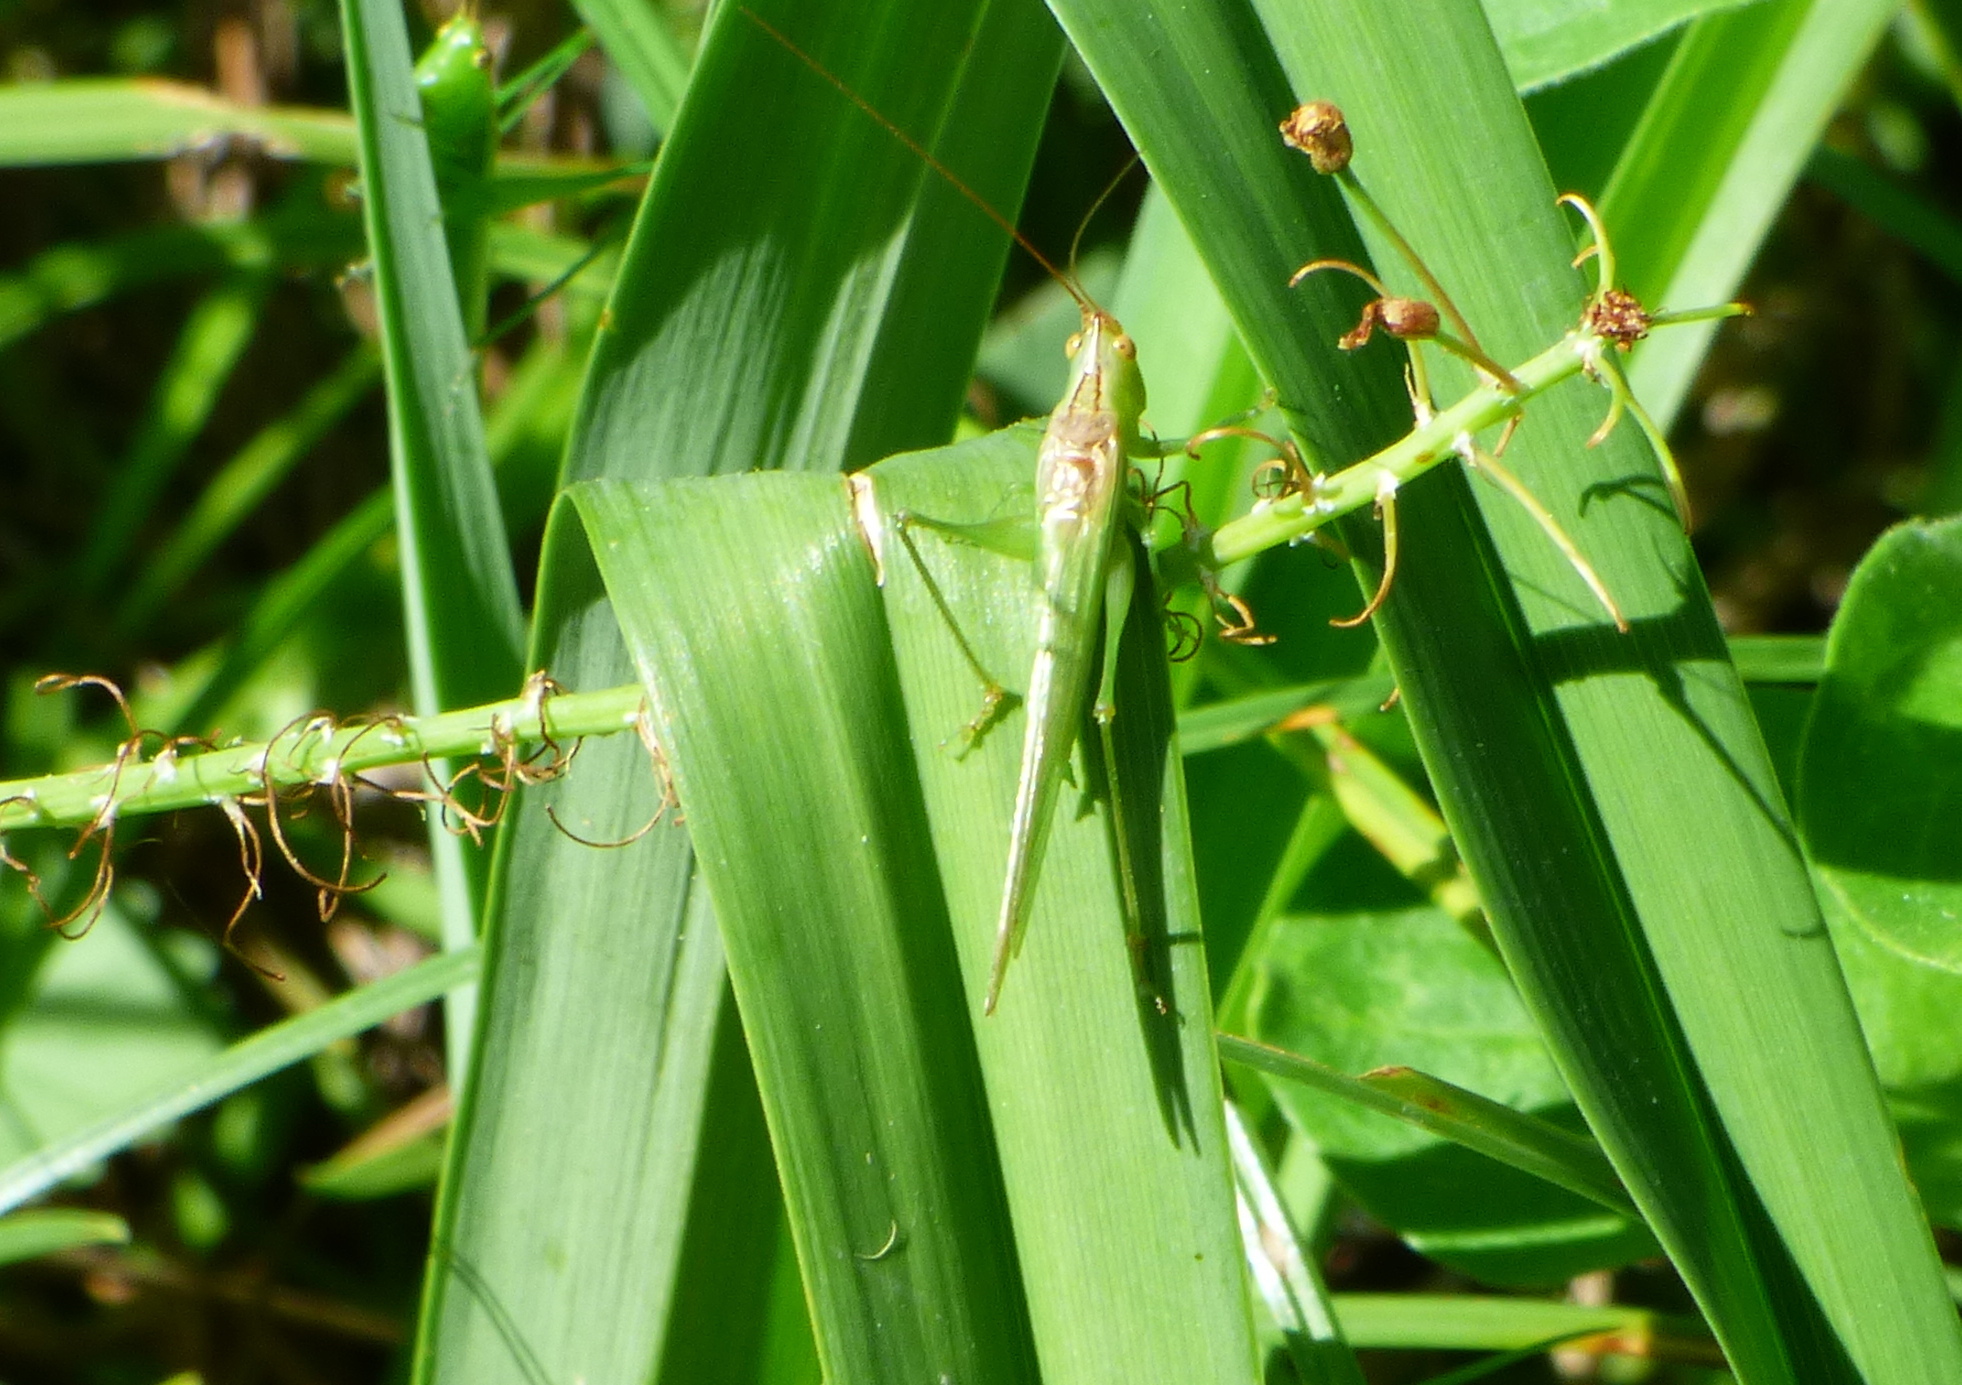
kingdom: Animalia
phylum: Arthropoda
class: Insecta
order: Orthoptera
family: Tettigoniidae
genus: Conocephalus
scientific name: Conocephalus longipes
